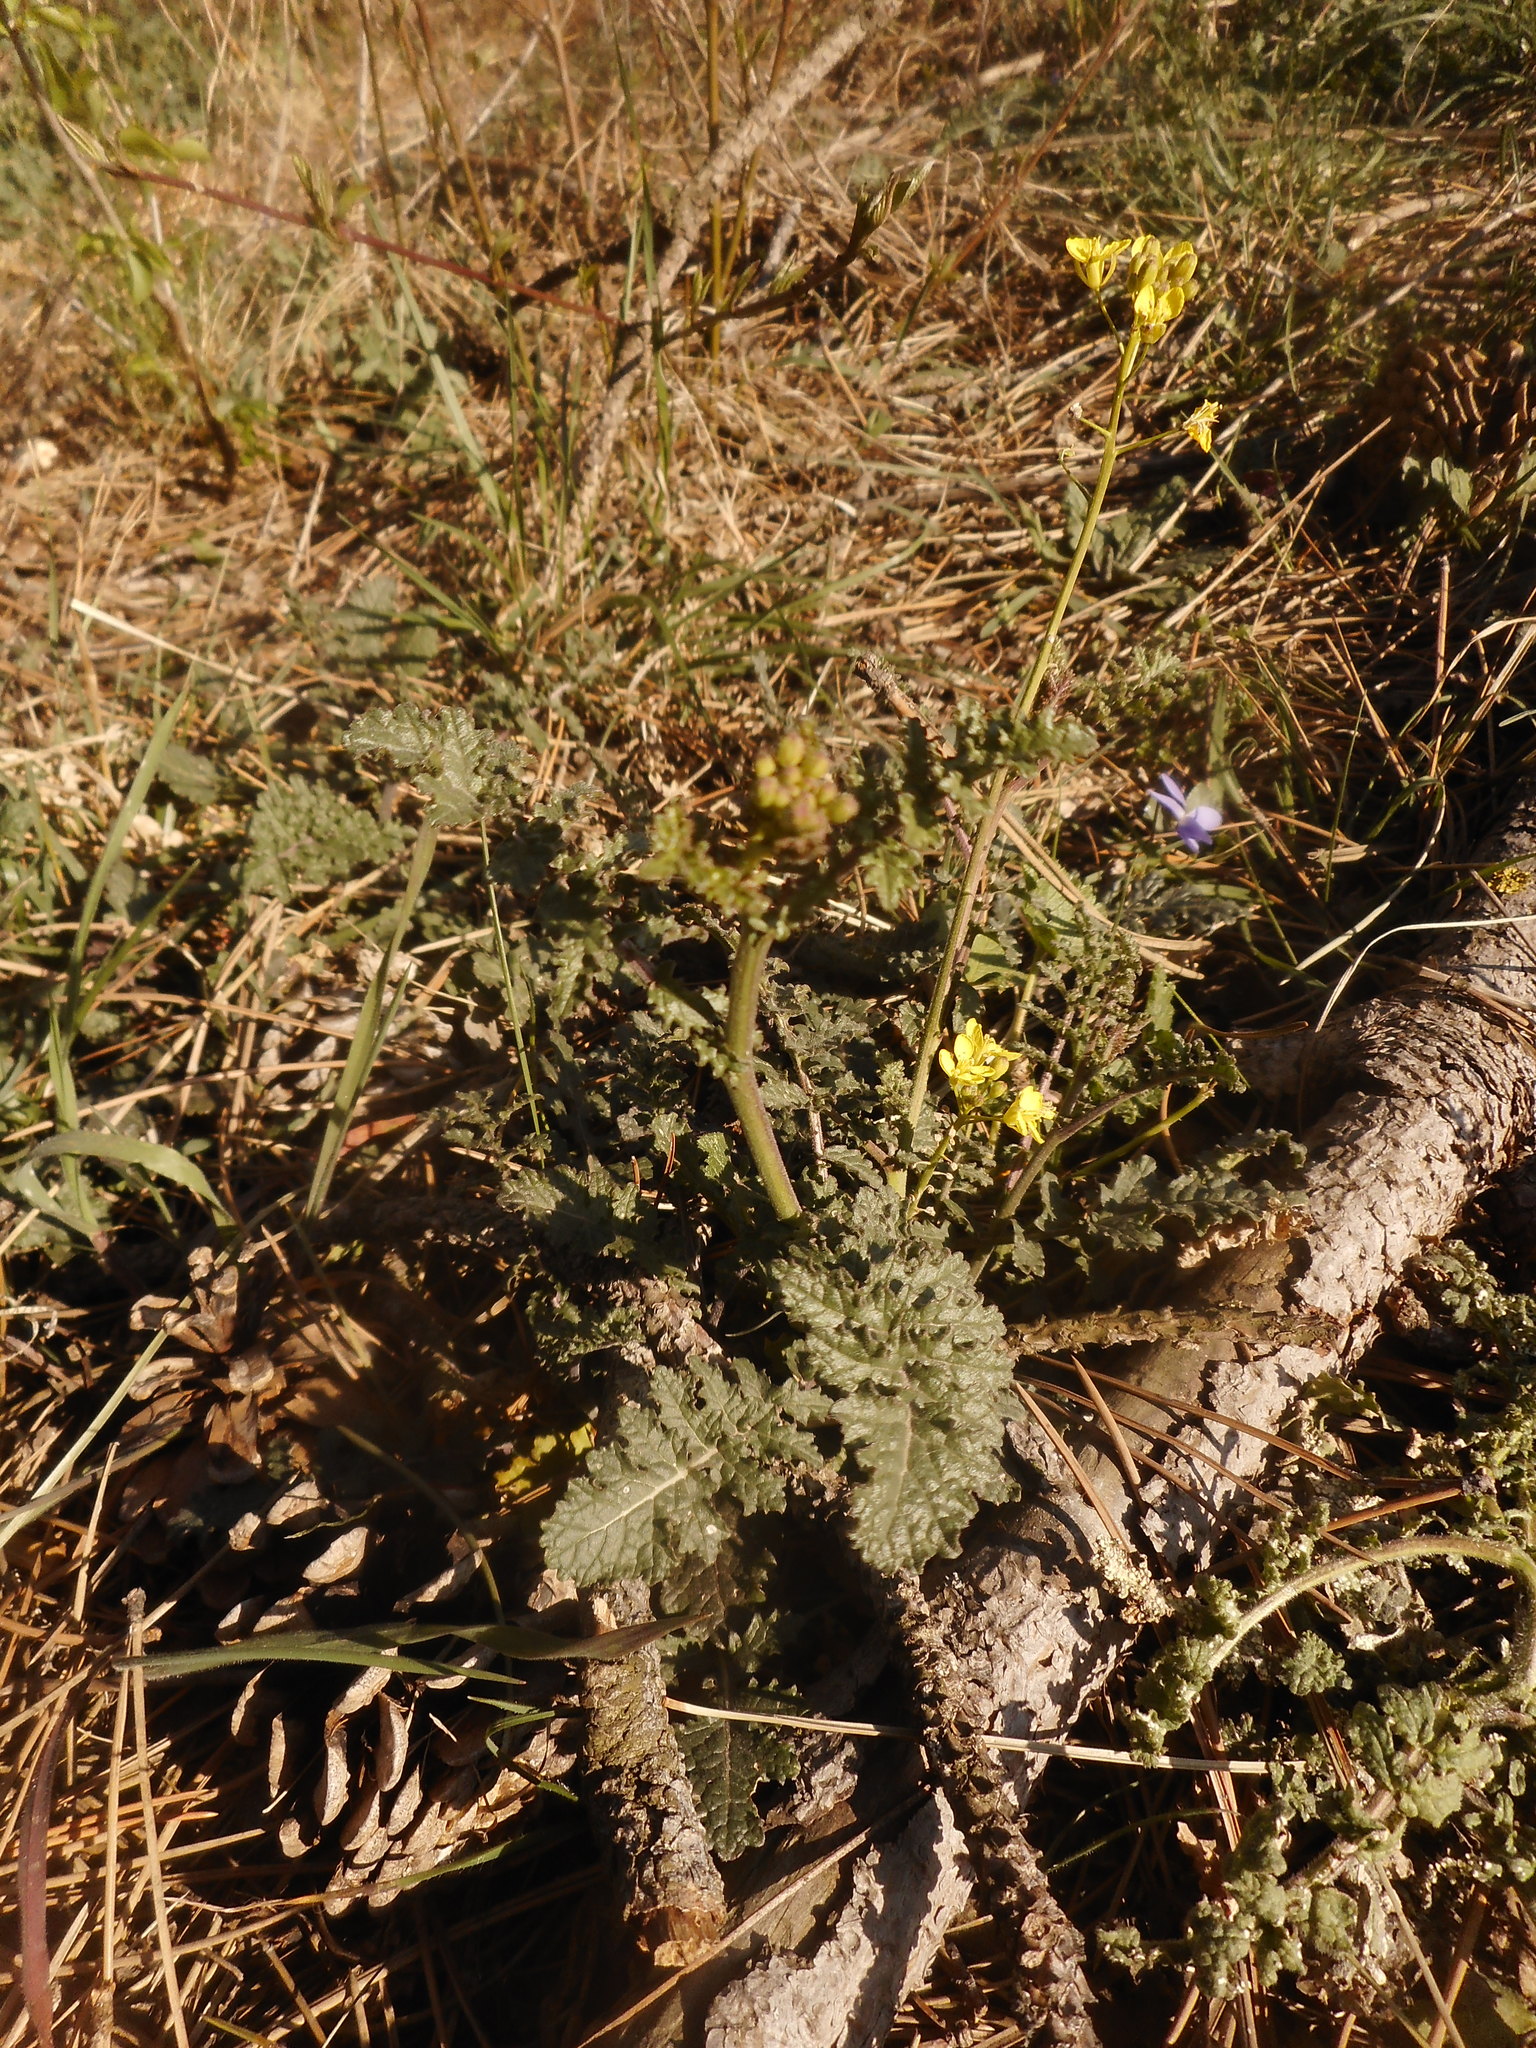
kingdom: Plantae
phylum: Tracheophyta
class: Magnoliopsida
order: Brassicales
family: Brassicaceae
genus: Erucastrum
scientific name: Erucastrum nasturtiifolium
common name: Watercress-leaf rocket
